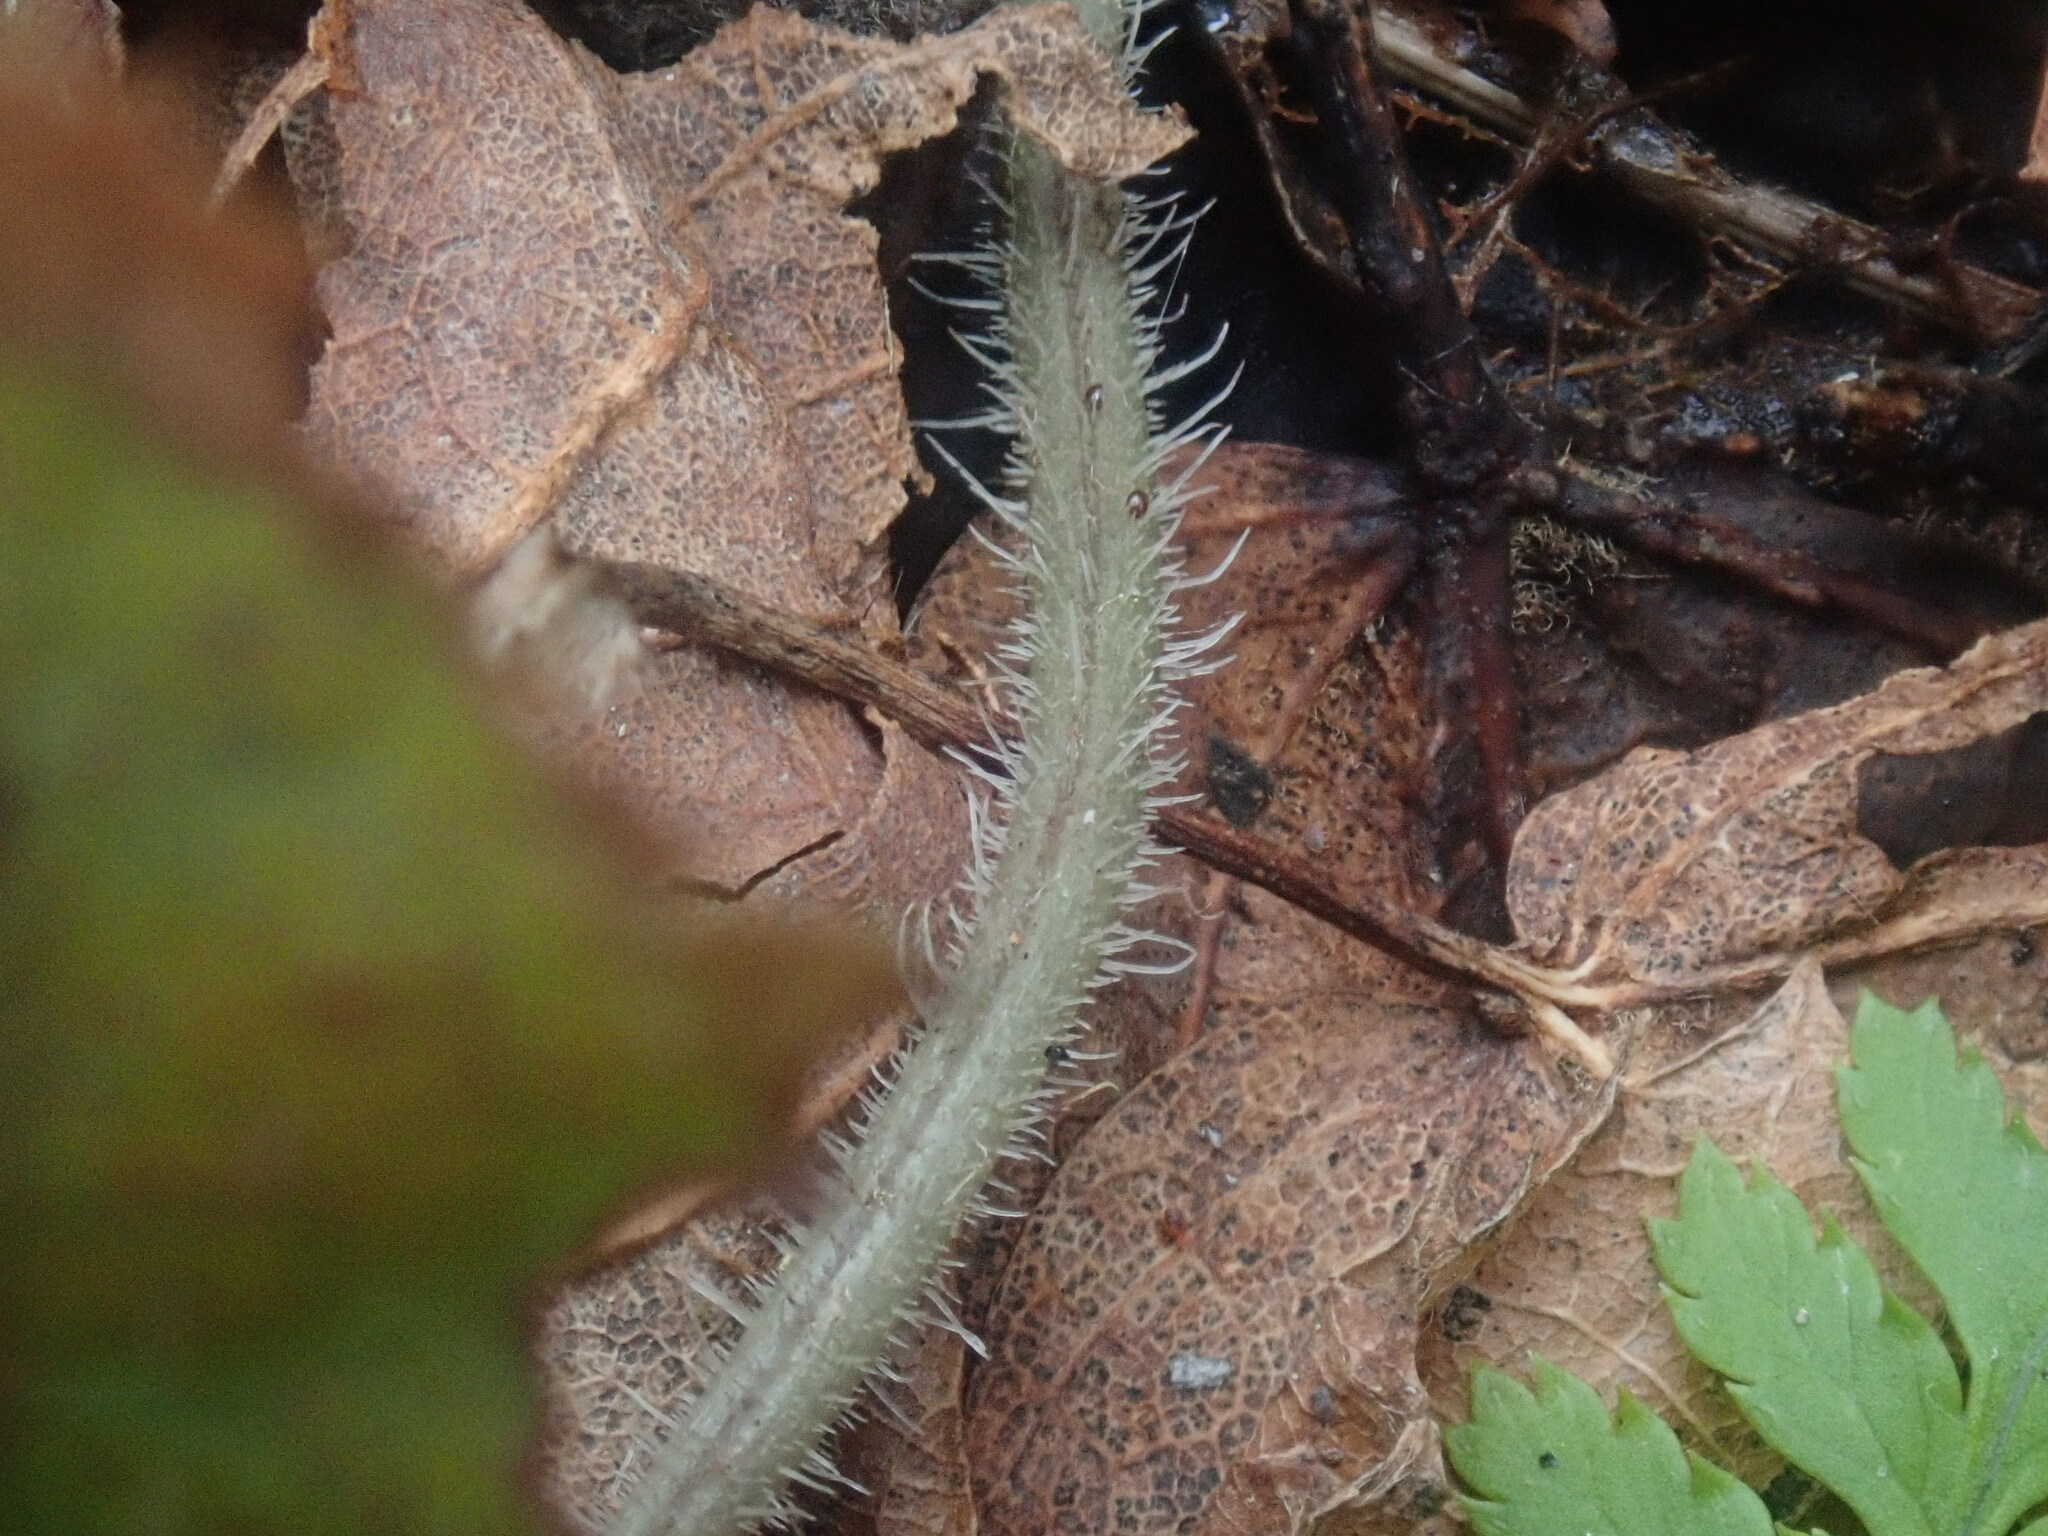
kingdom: Plantae
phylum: Tracheophyta
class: Magnoliopsida
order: Saxifragales
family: Saxifragaceae
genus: Tiarella
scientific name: Tiarella stolonifera
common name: Stoloniferous foamflower
